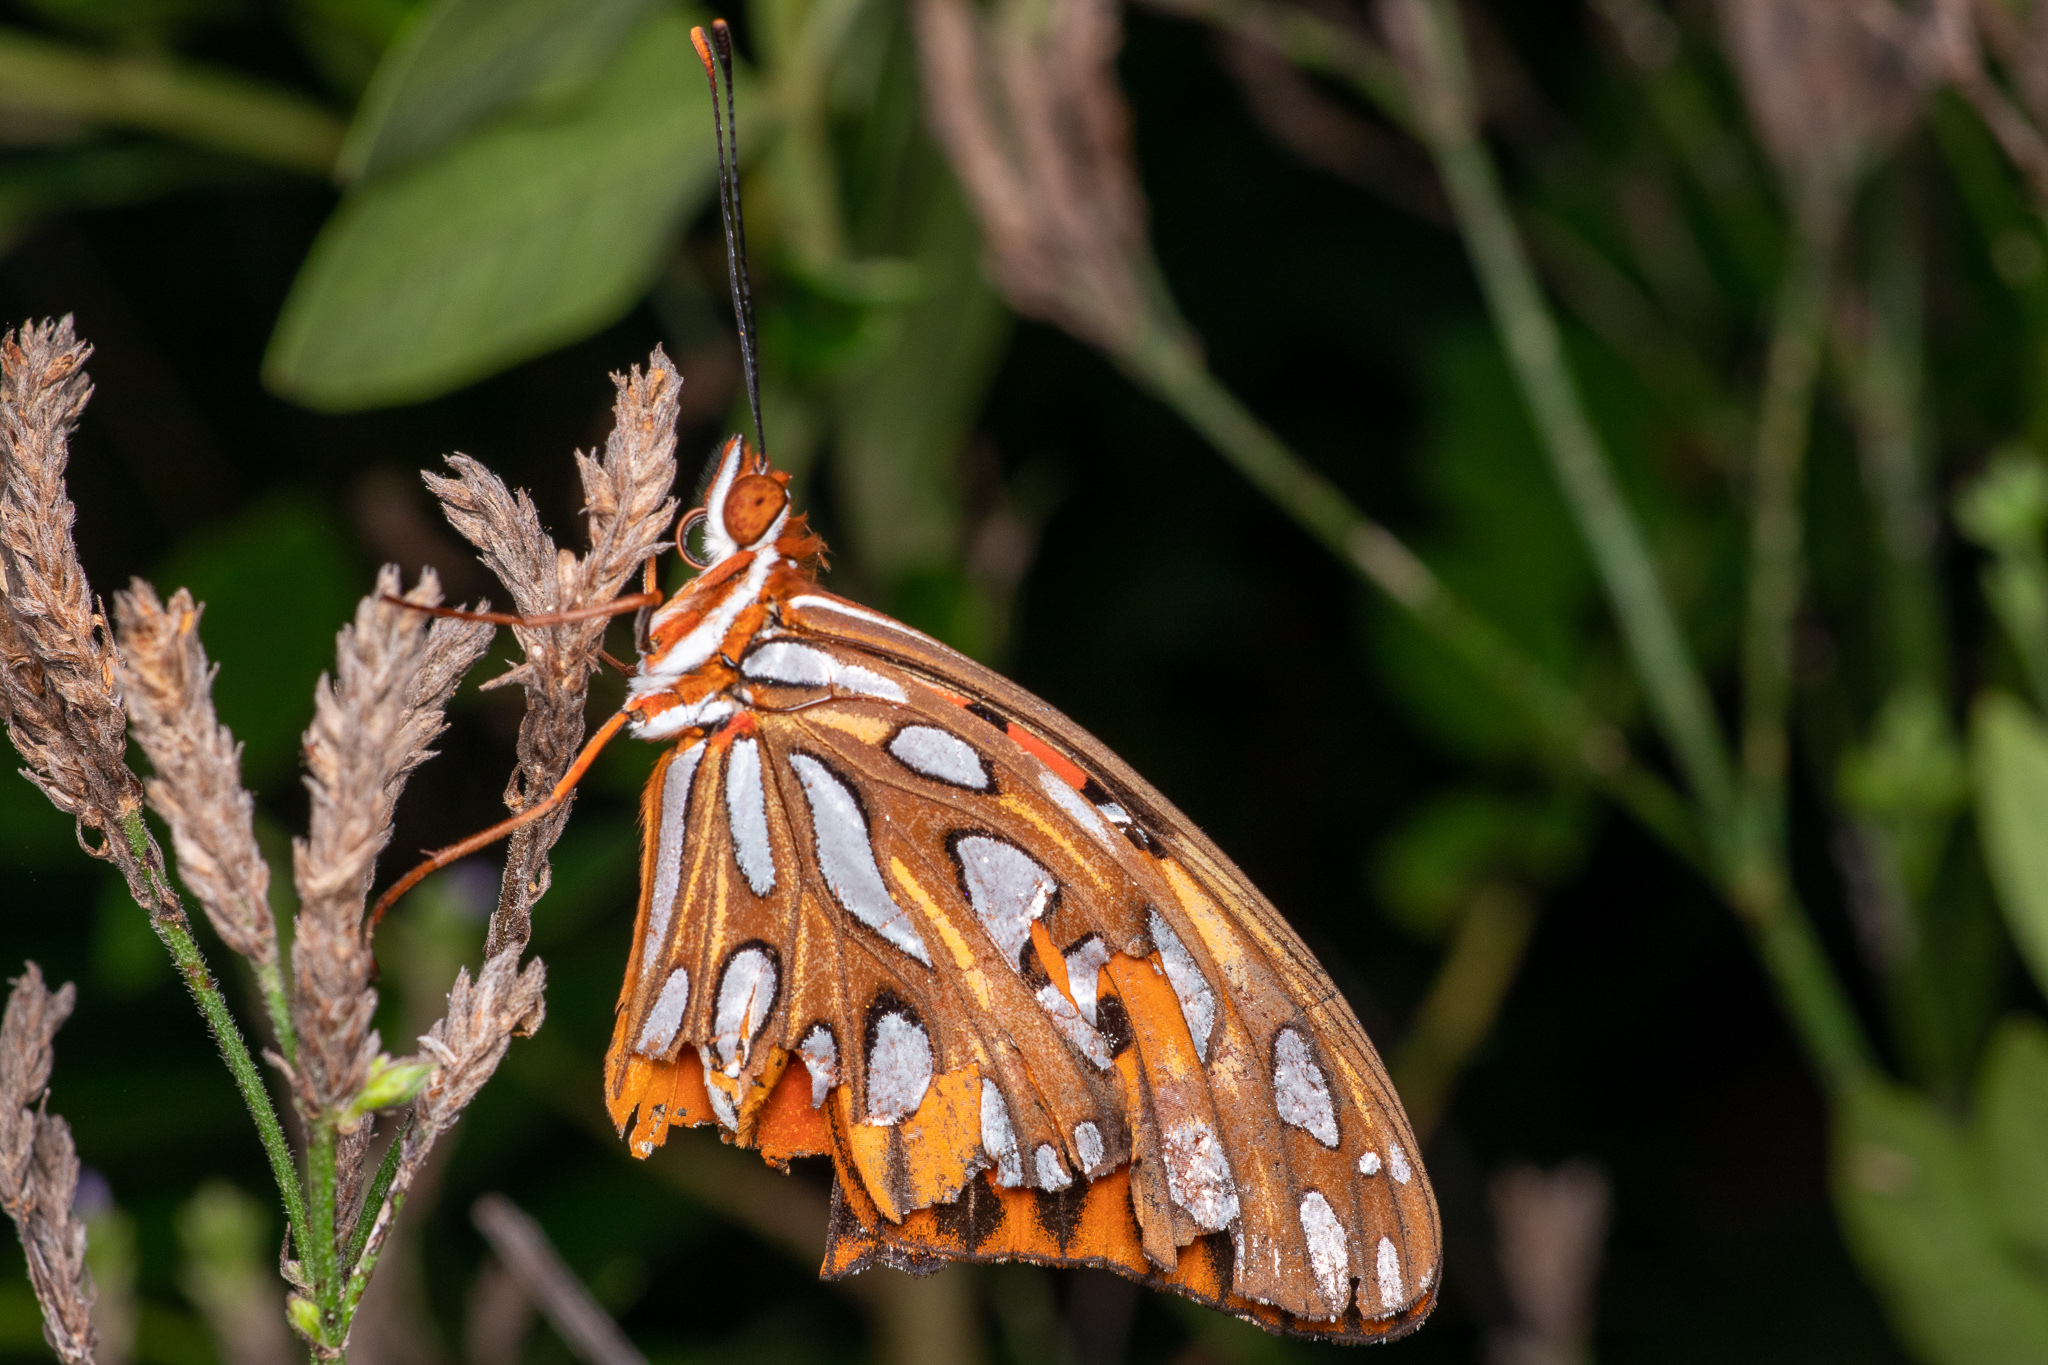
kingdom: Animalia
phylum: Arthropoda
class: Insecta
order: Lepidoptera
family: Nymphalidae
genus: Dione
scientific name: Dione vanillae
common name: Gulf fritillary
